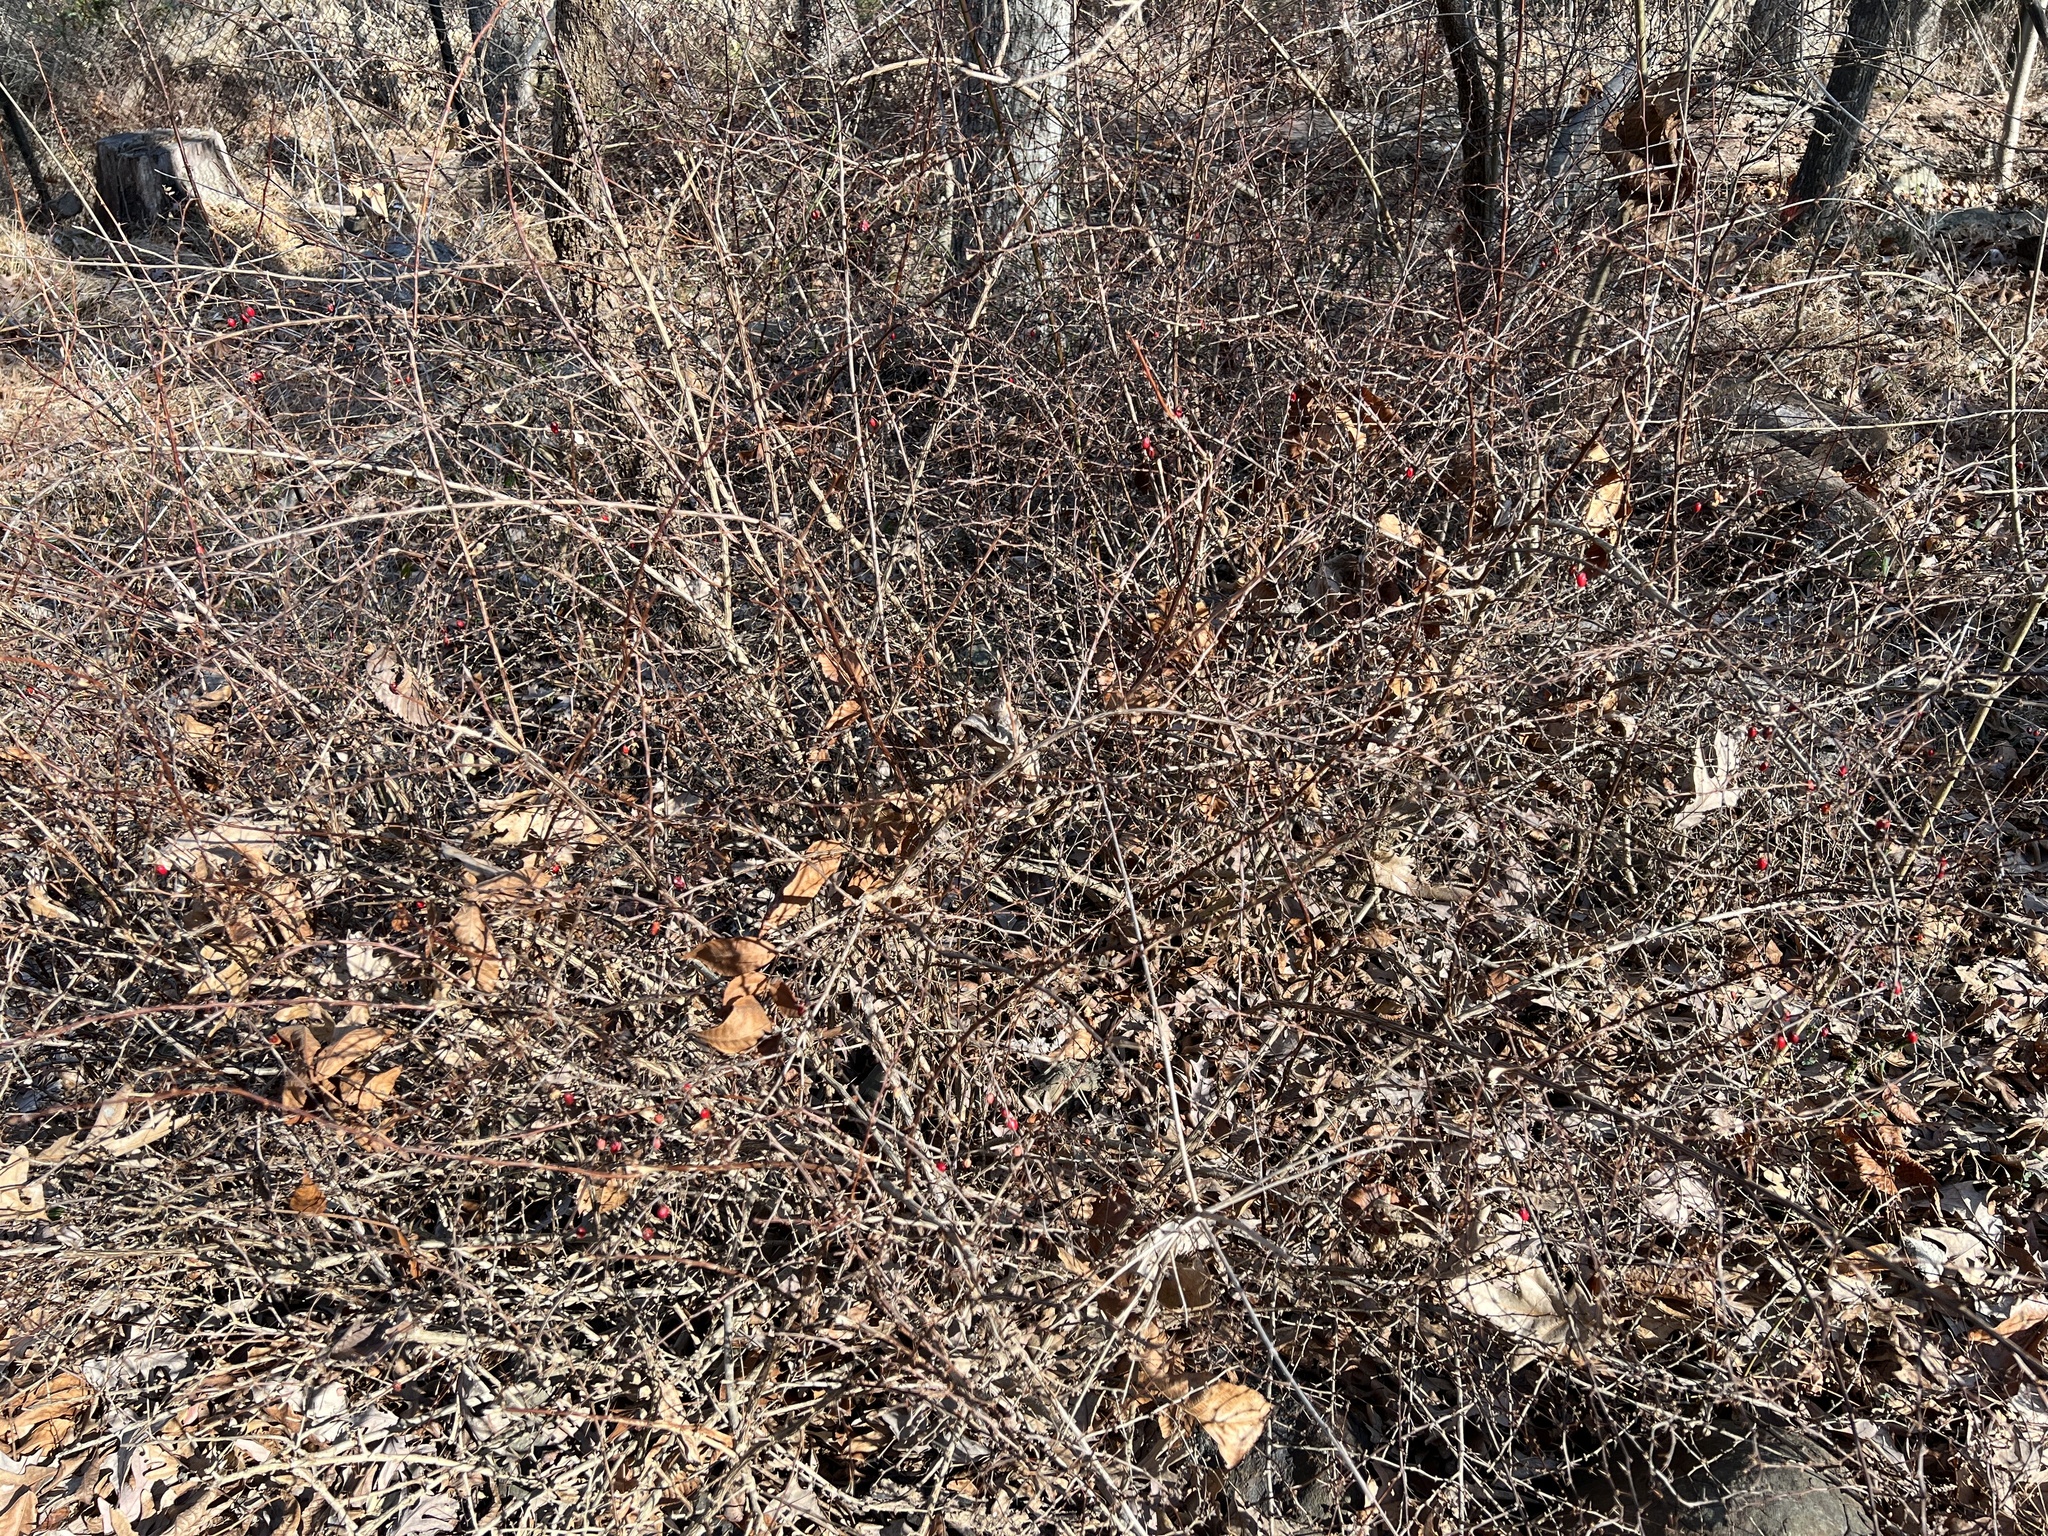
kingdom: Plantae
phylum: Tracheophyta
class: Magnoliopsida
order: Ranunculales
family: Berberidaceae
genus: Berberis
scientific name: Berberis thunbergii
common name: Japanese barberry
